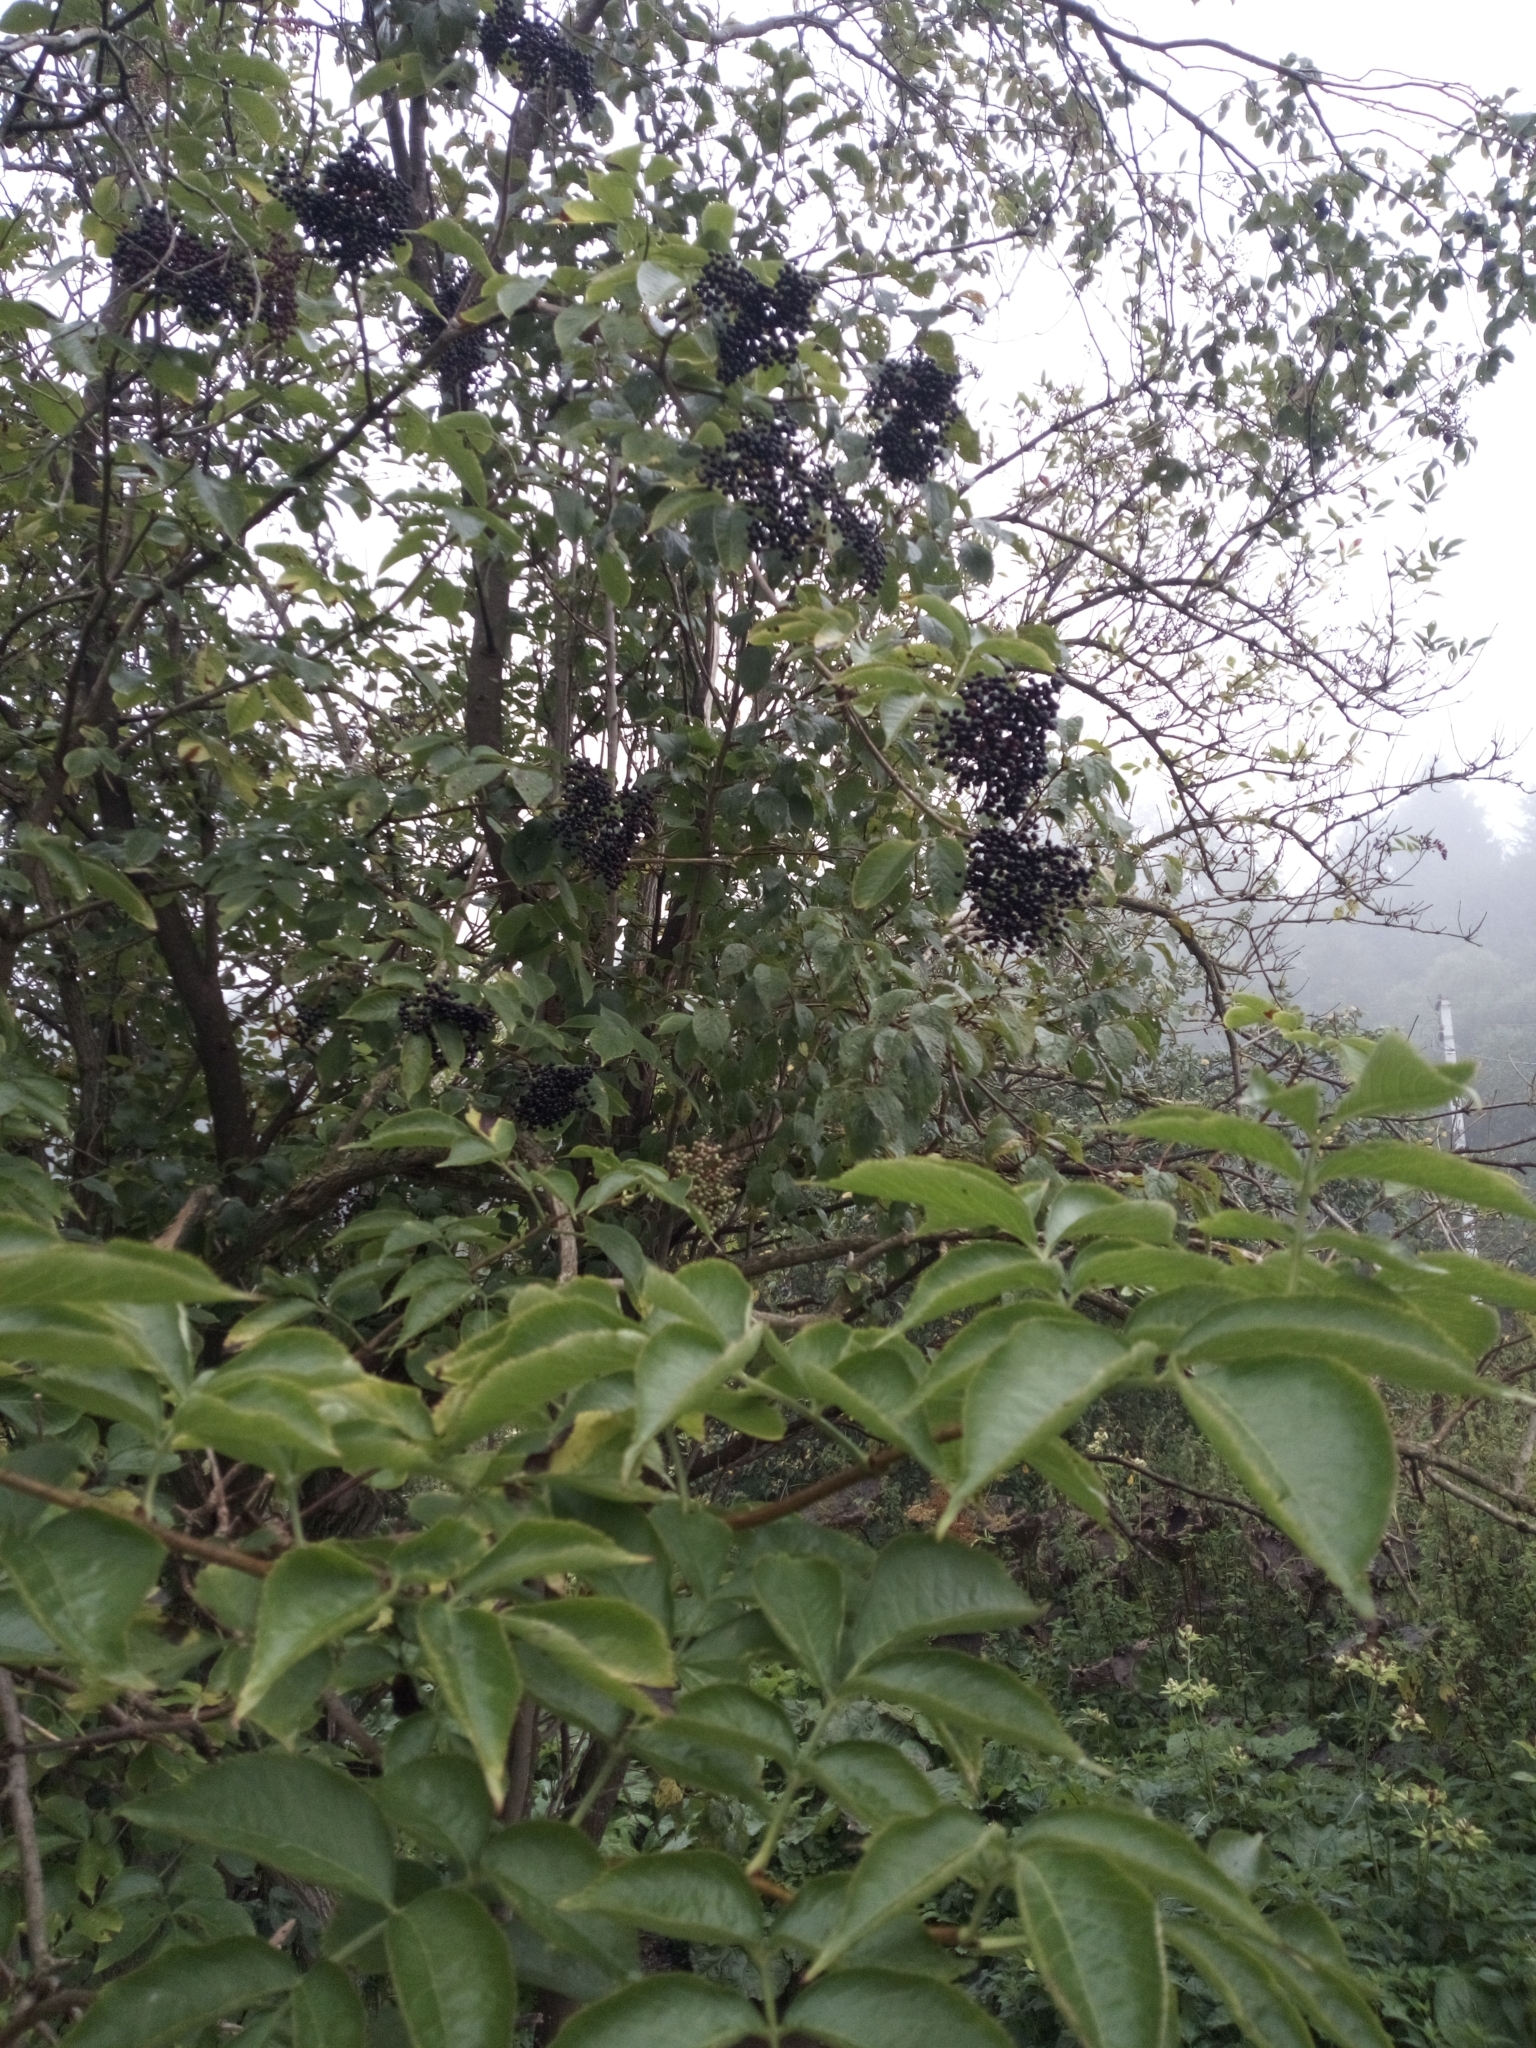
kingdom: Plantae
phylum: Tracheophyta
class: Magnoliopsida
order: Dipsacales
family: Viburnaceae
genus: Sambucus
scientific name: Sambucus nigra
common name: Elder
